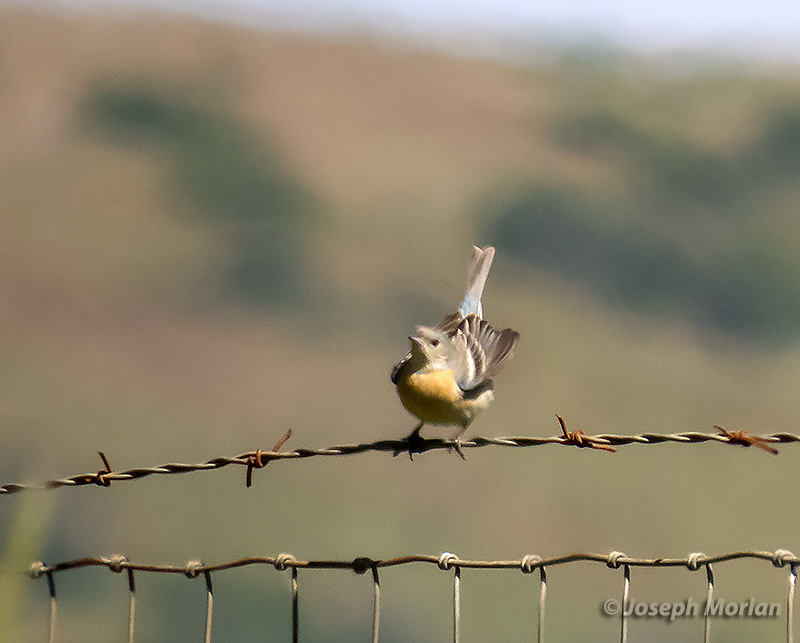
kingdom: Animalia
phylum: Chordata
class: Aves
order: Passeriformes
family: Cardinalidae
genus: Passerina
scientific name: Passerina amoena
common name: Lazuli bunting
